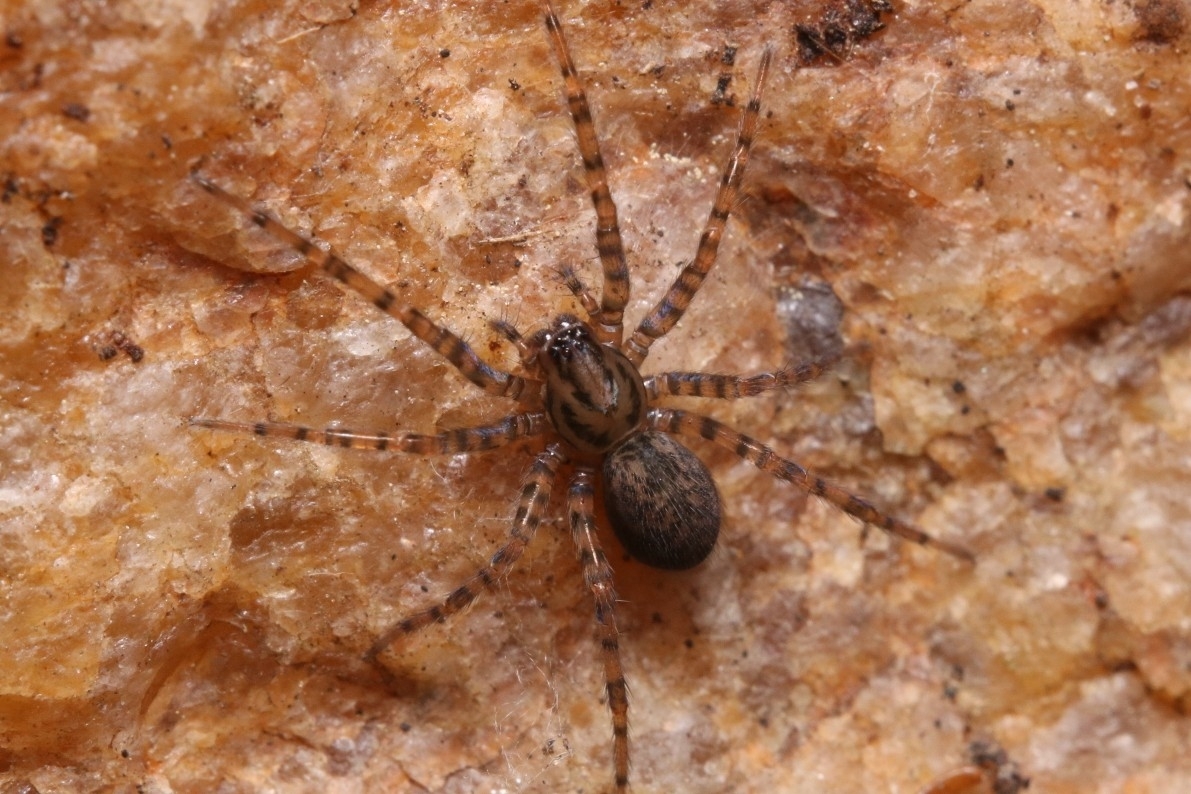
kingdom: Animalia
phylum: Arthropoda
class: Arachnida
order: Araneae
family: Agelenidae
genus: Coras
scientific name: Coras
